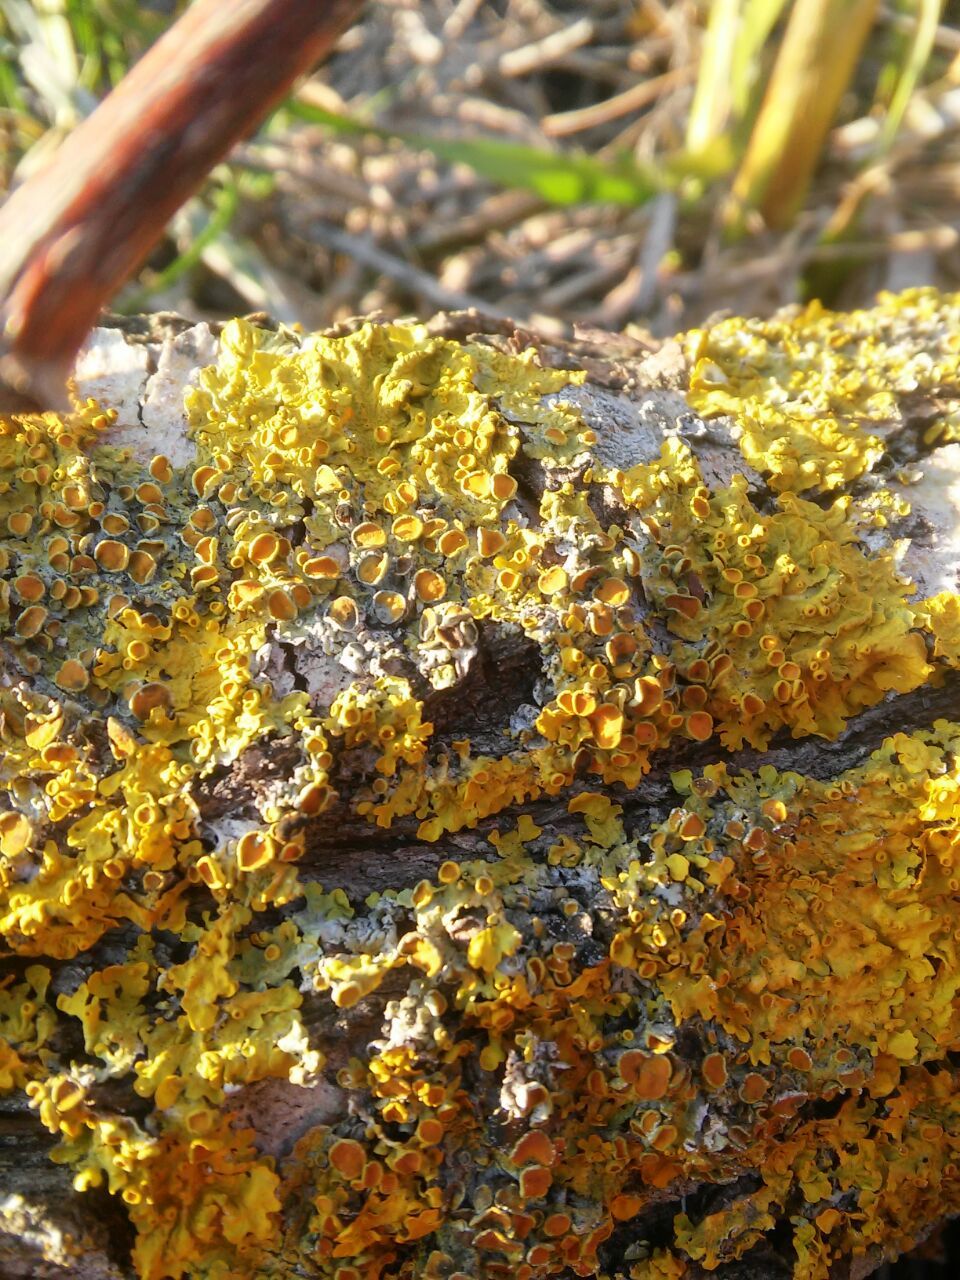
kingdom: Fungi
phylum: Ascomycota
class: Lecanoromycetes
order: Teloschistales
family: Teloschistaceae
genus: Xanthoria
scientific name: Xanthoria parietina
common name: Common orange lichen
